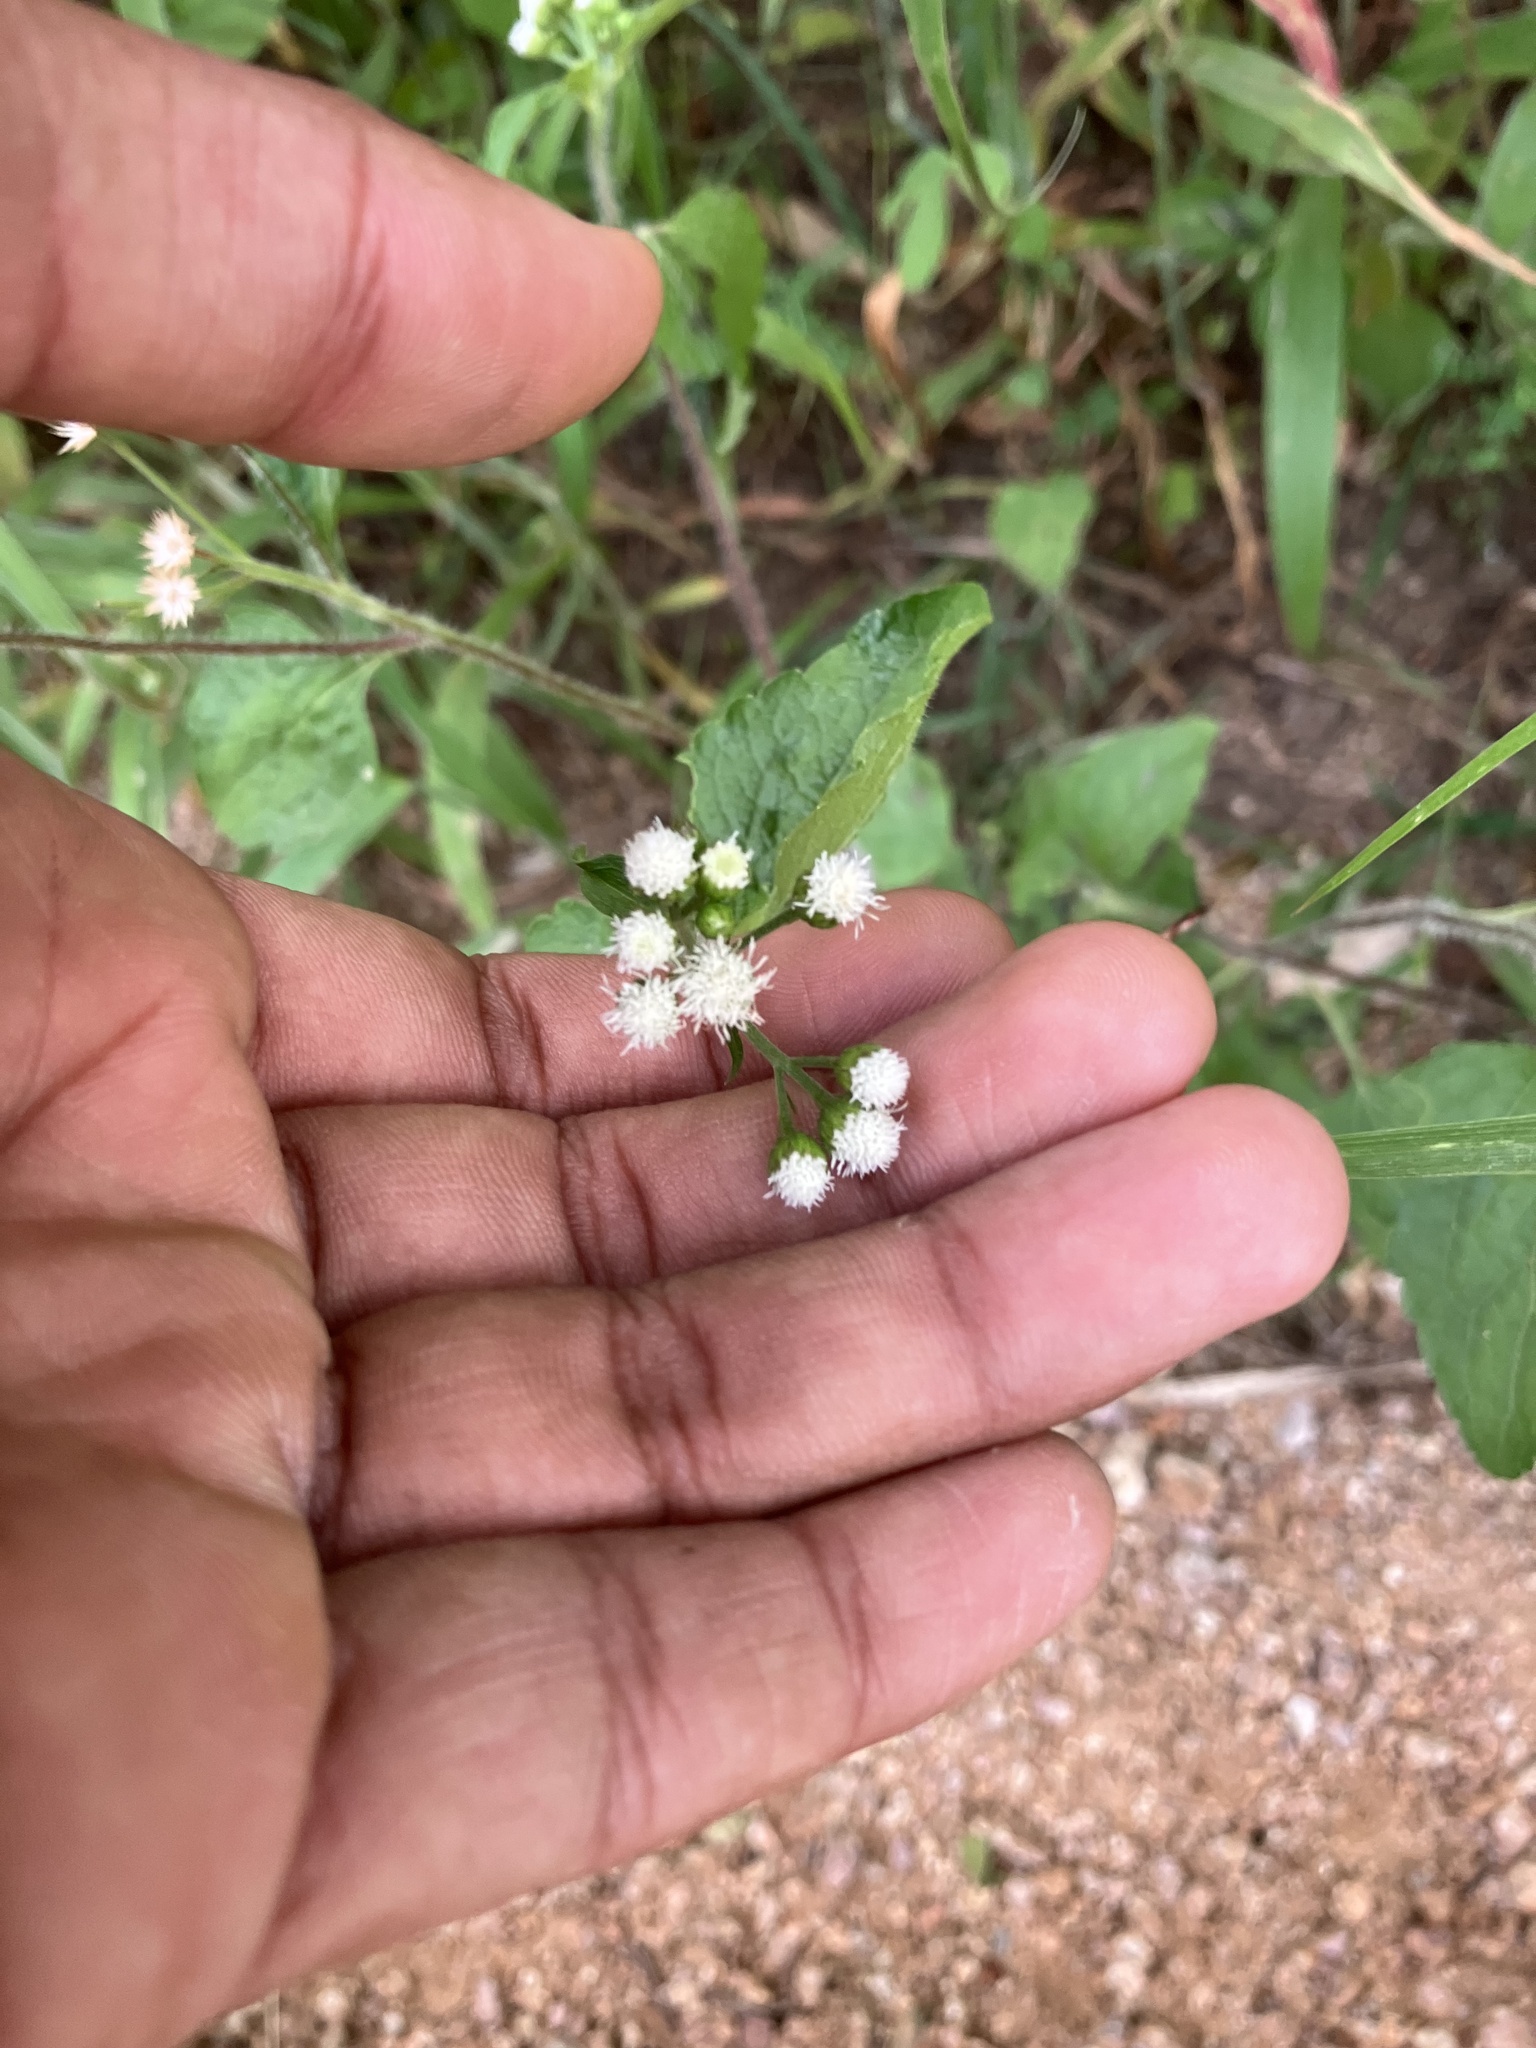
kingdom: Plantae
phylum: Tracheophyta
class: Magnoliopsida
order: Asterales
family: Asteraceae
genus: Ageratum
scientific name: Ageratum conyzoides
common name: Tropical whiteweed
